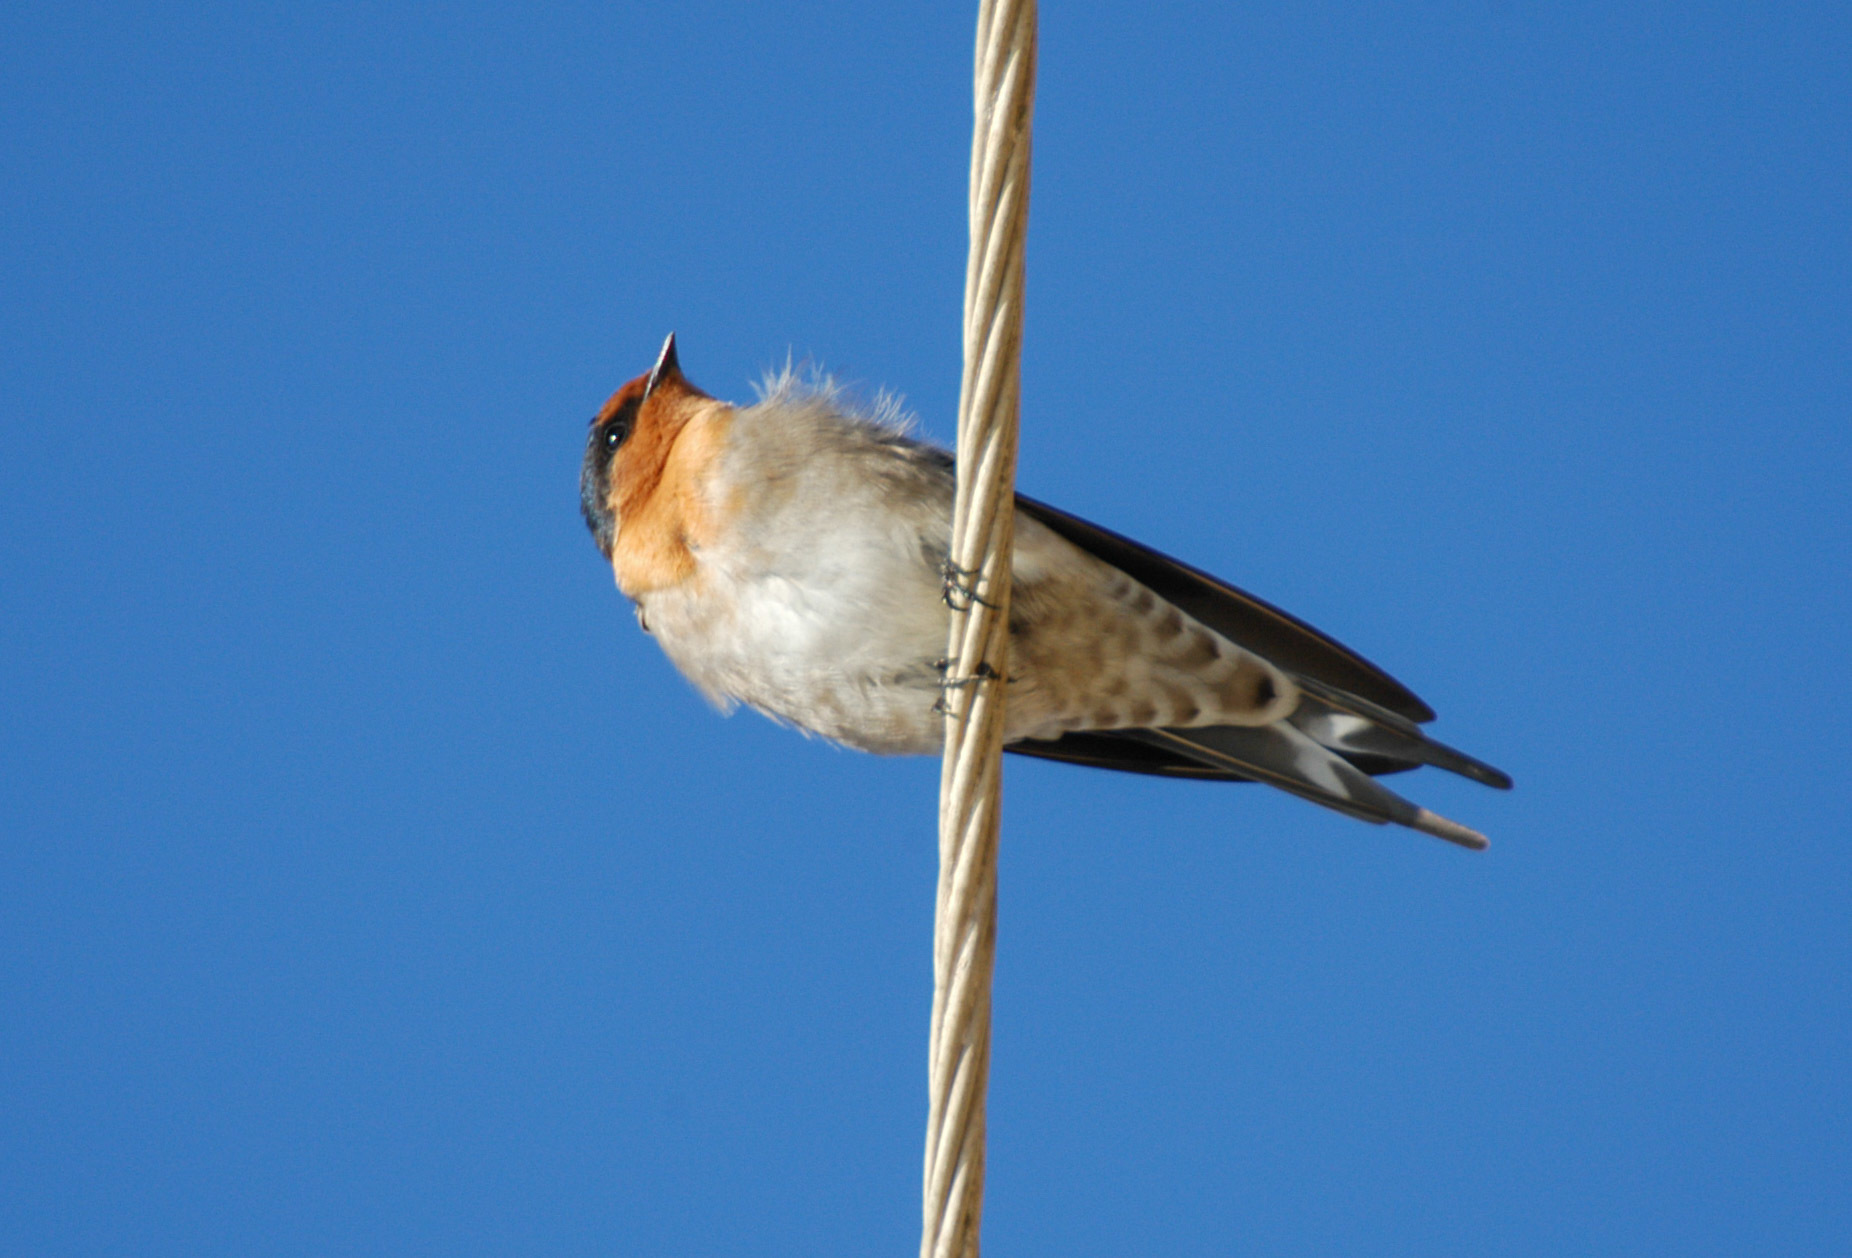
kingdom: Animalia
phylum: Chordata
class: Aves
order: Passeriformes
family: Hirundinidae
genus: Hirundo
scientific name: Hirundo neoxena
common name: Welcome swallow
